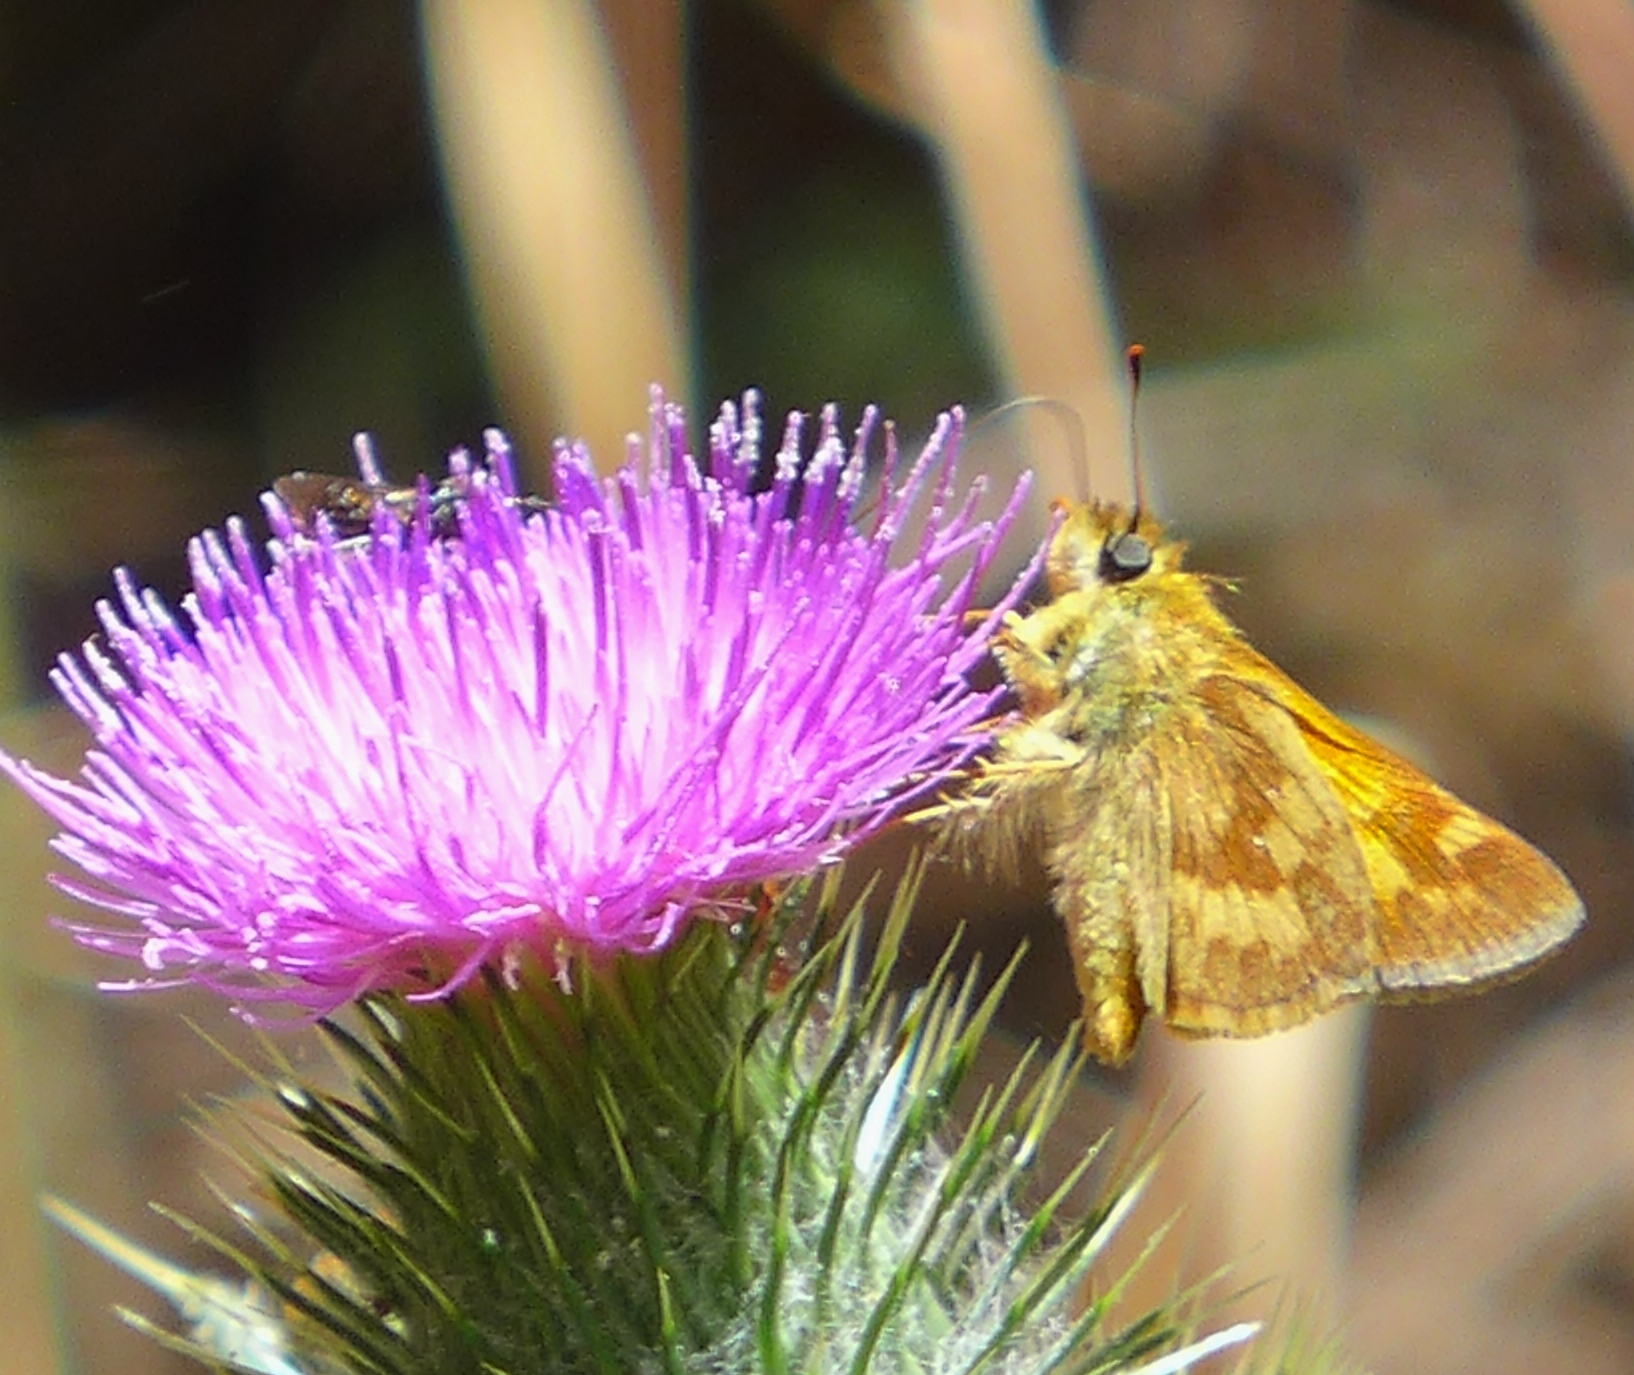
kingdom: Animalia
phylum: Arthropoda
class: Insecta
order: Lepidoptera
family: Hesperiidae
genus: Ochlodes
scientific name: Ochlodes sylvanoides
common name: Woodland skipper
